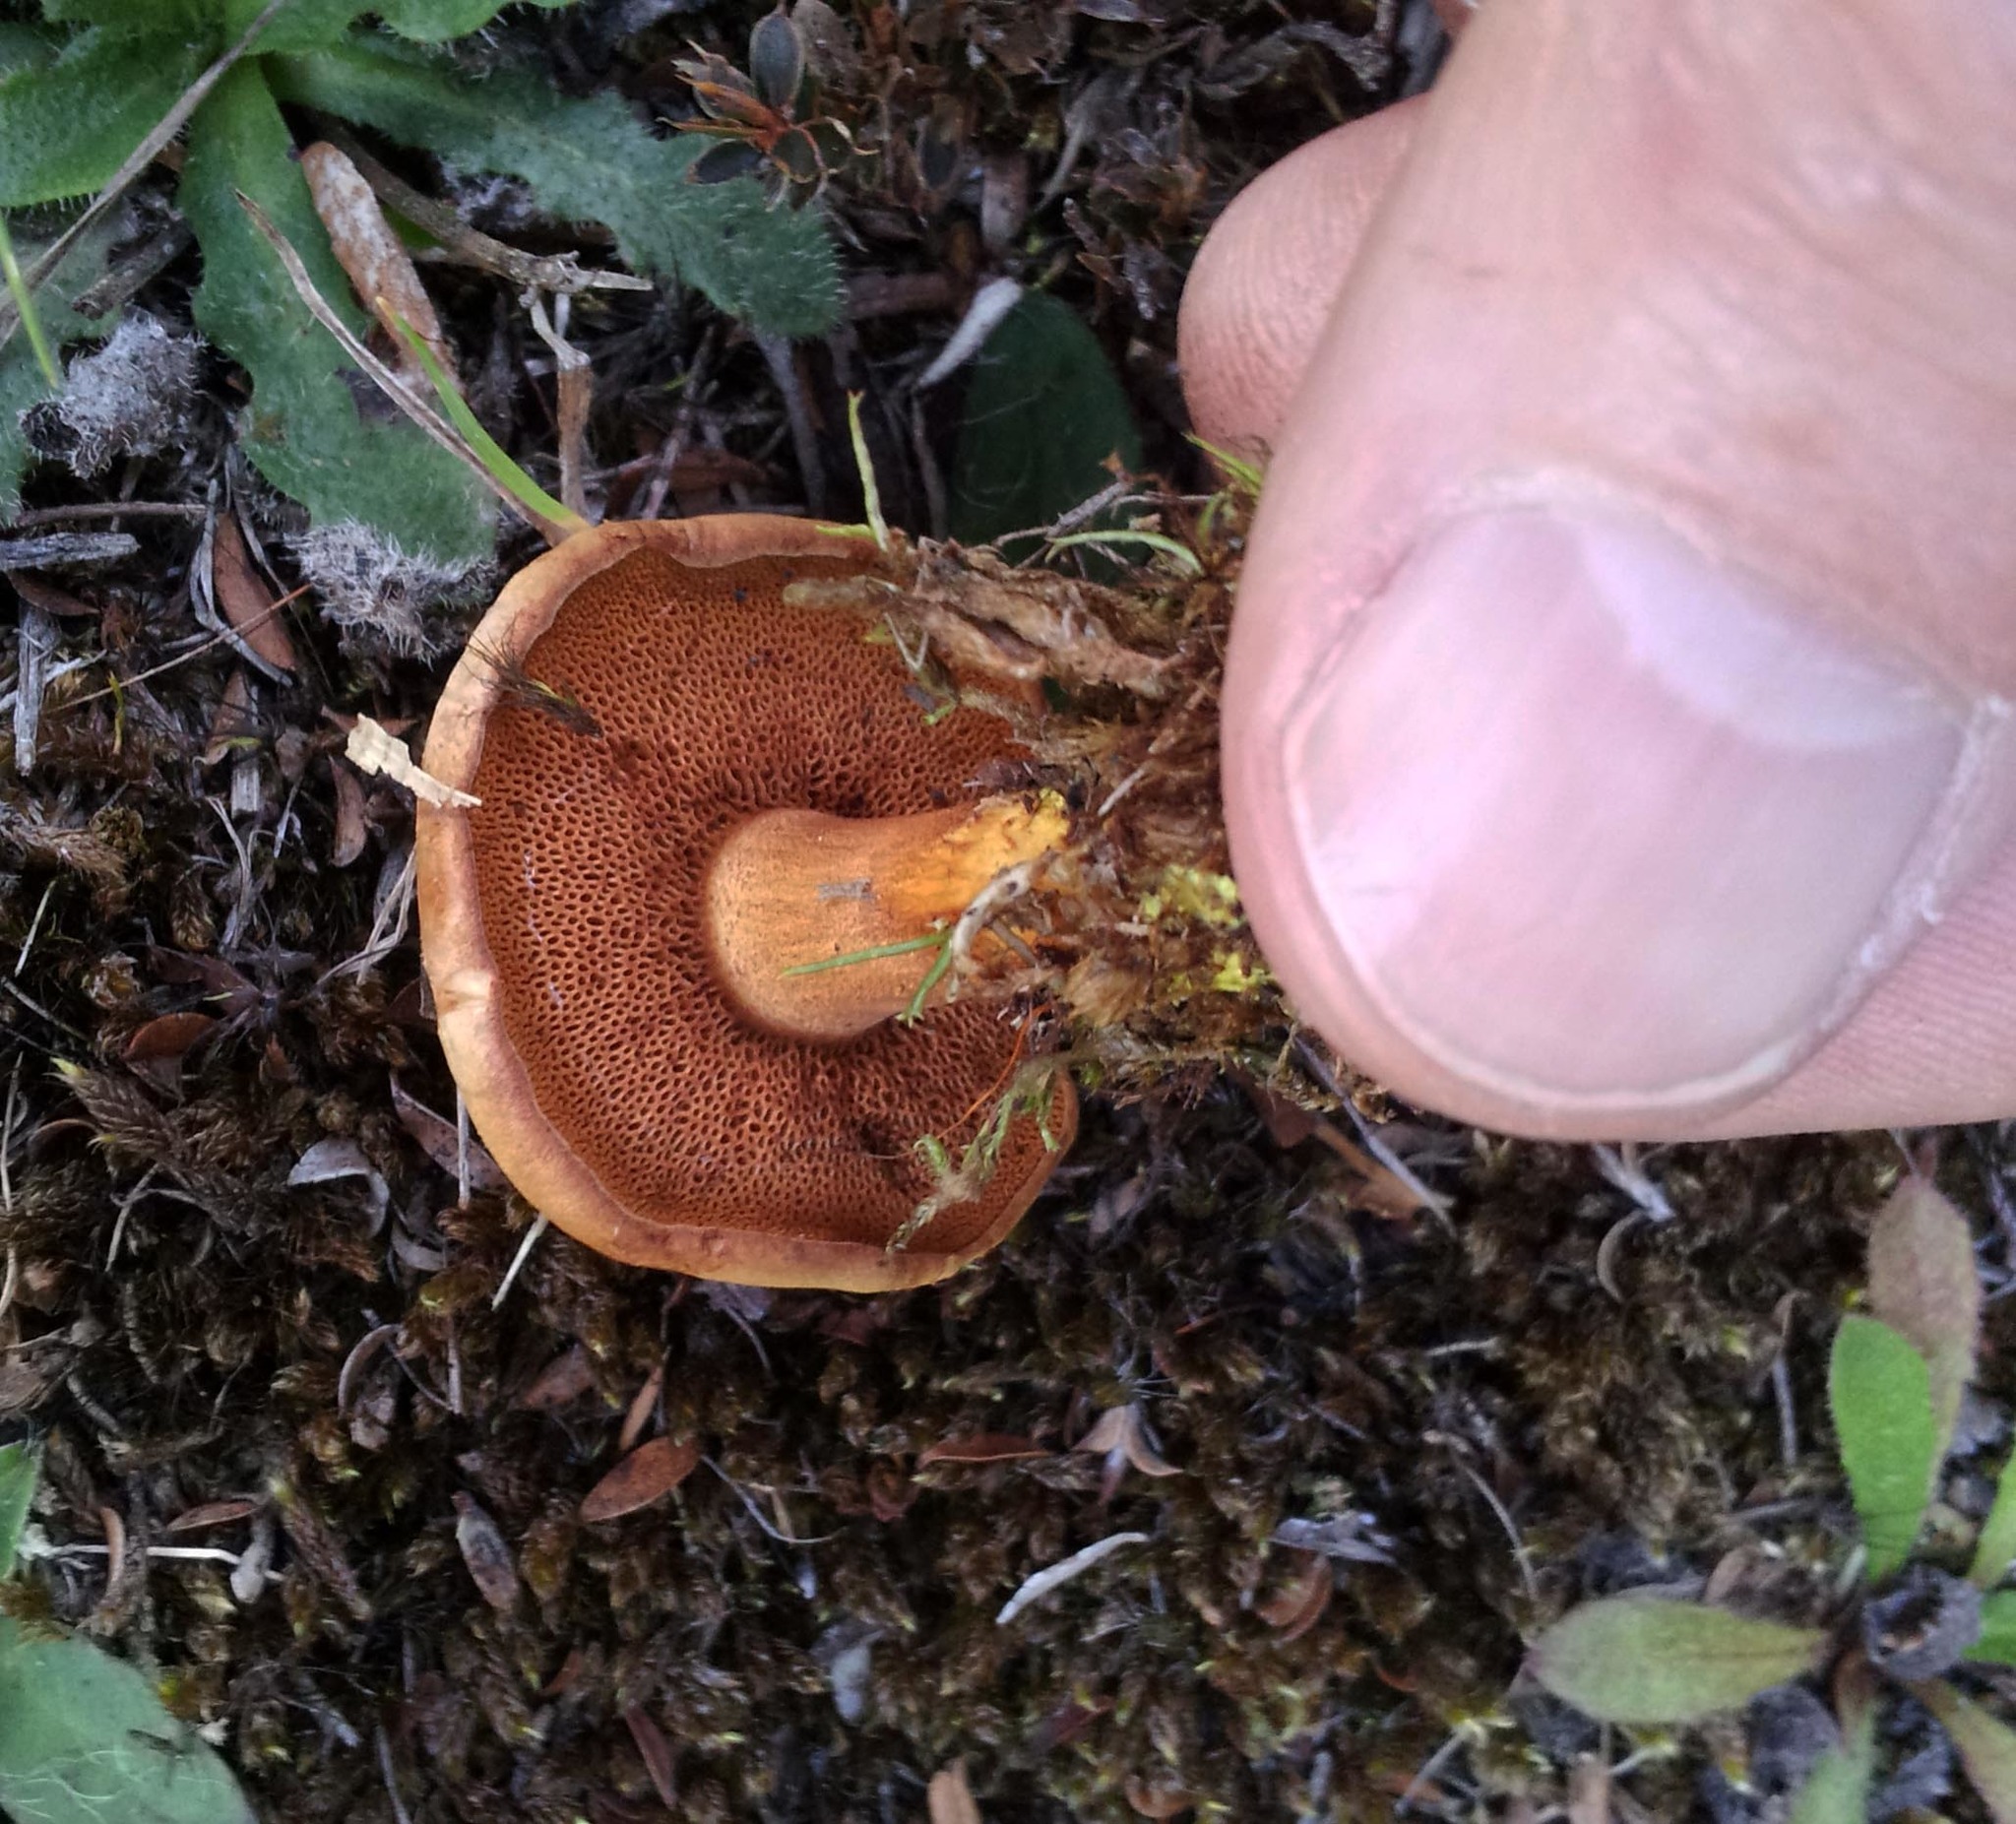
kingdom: Fungi
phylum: Basidiomycota
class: Agaricomycetes
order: Boletales
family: Boletaceae
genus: Chalciporus
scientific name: Chalciporus piperatus
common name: Peppery bolete
